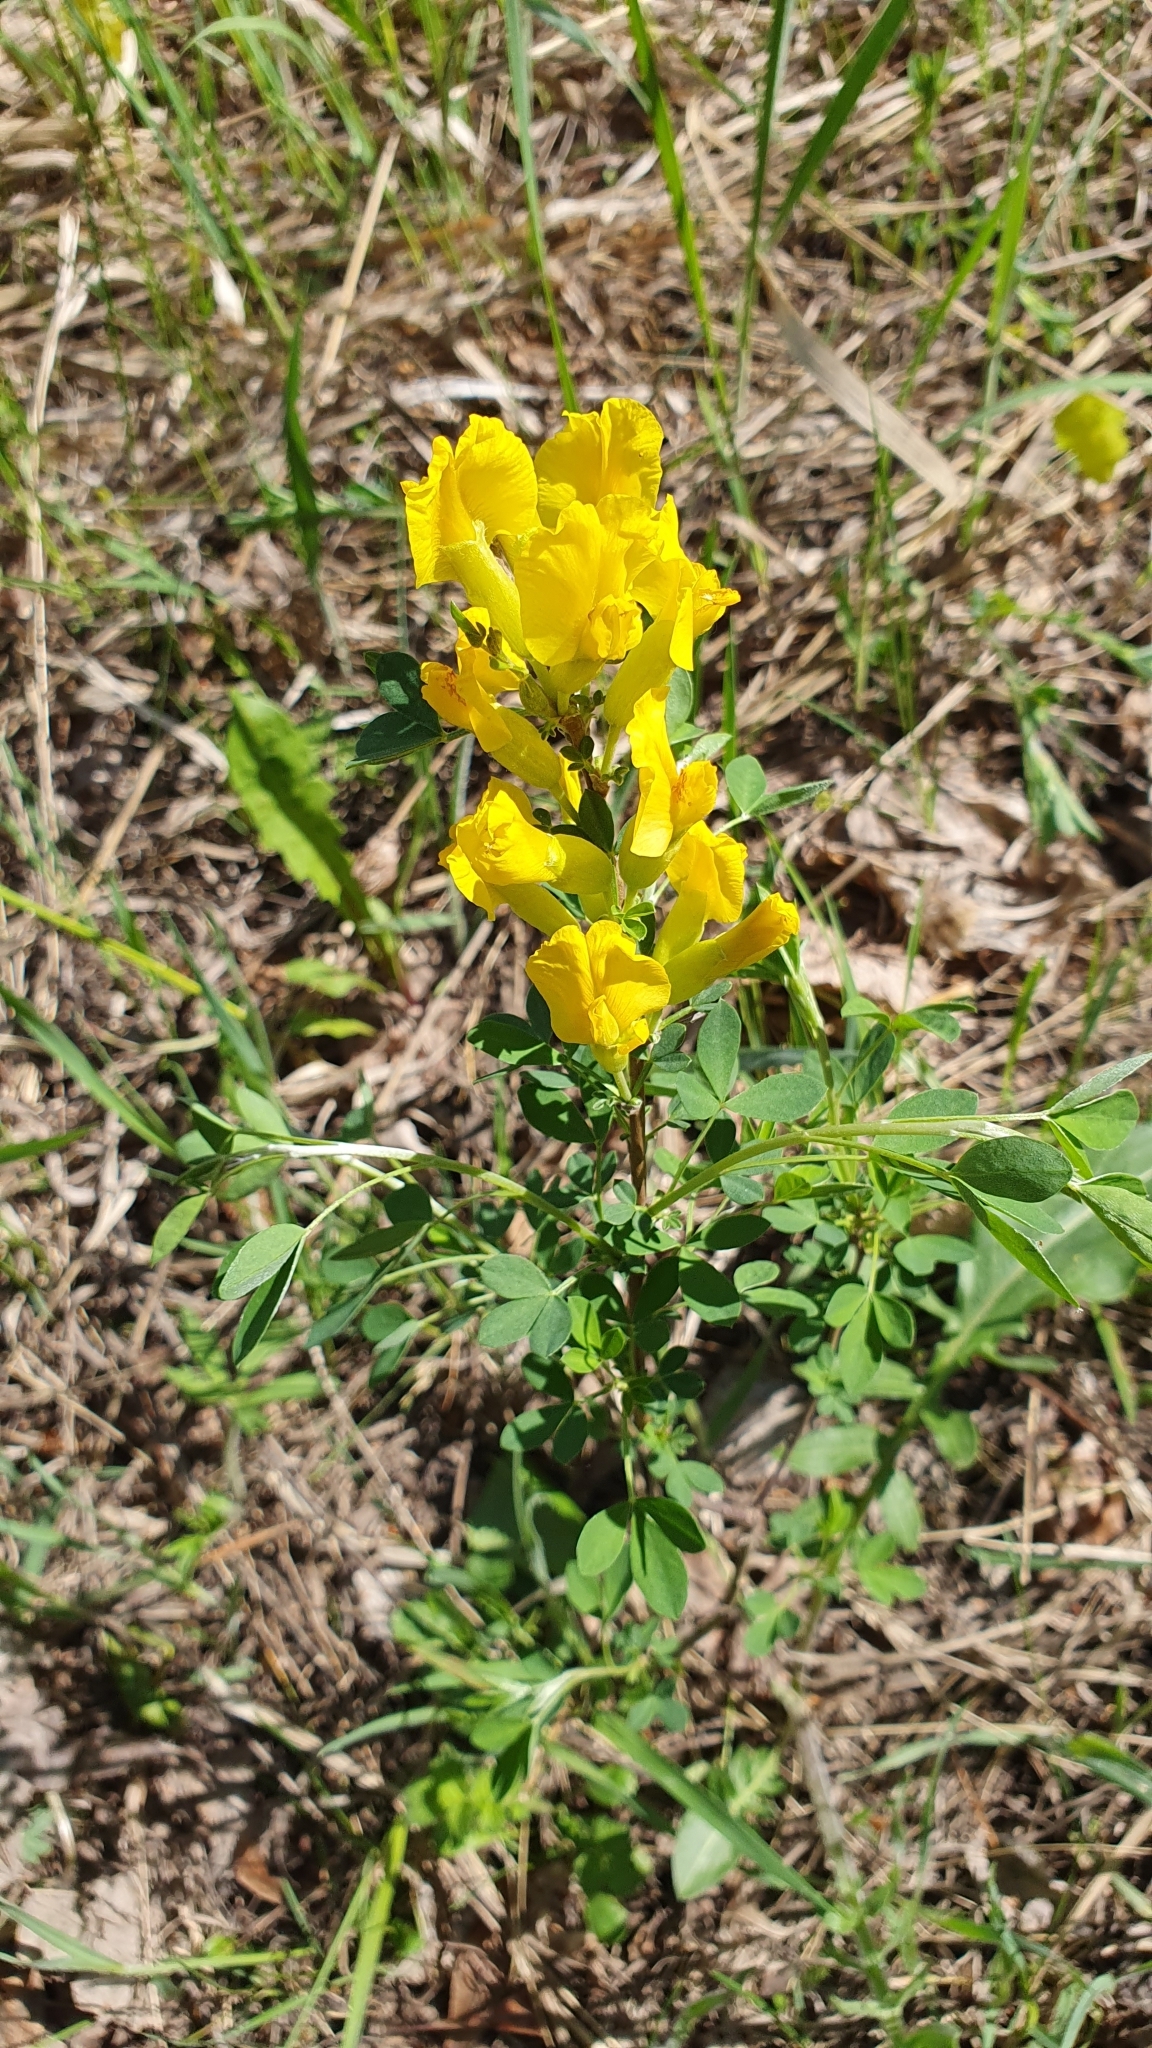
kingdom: Plantae
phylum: Tracheophyta
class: Magnoliopsida
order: Fabales
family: Fabaceae
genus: Chamaecytisus
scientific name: Chamaecytisus ruthenicus
